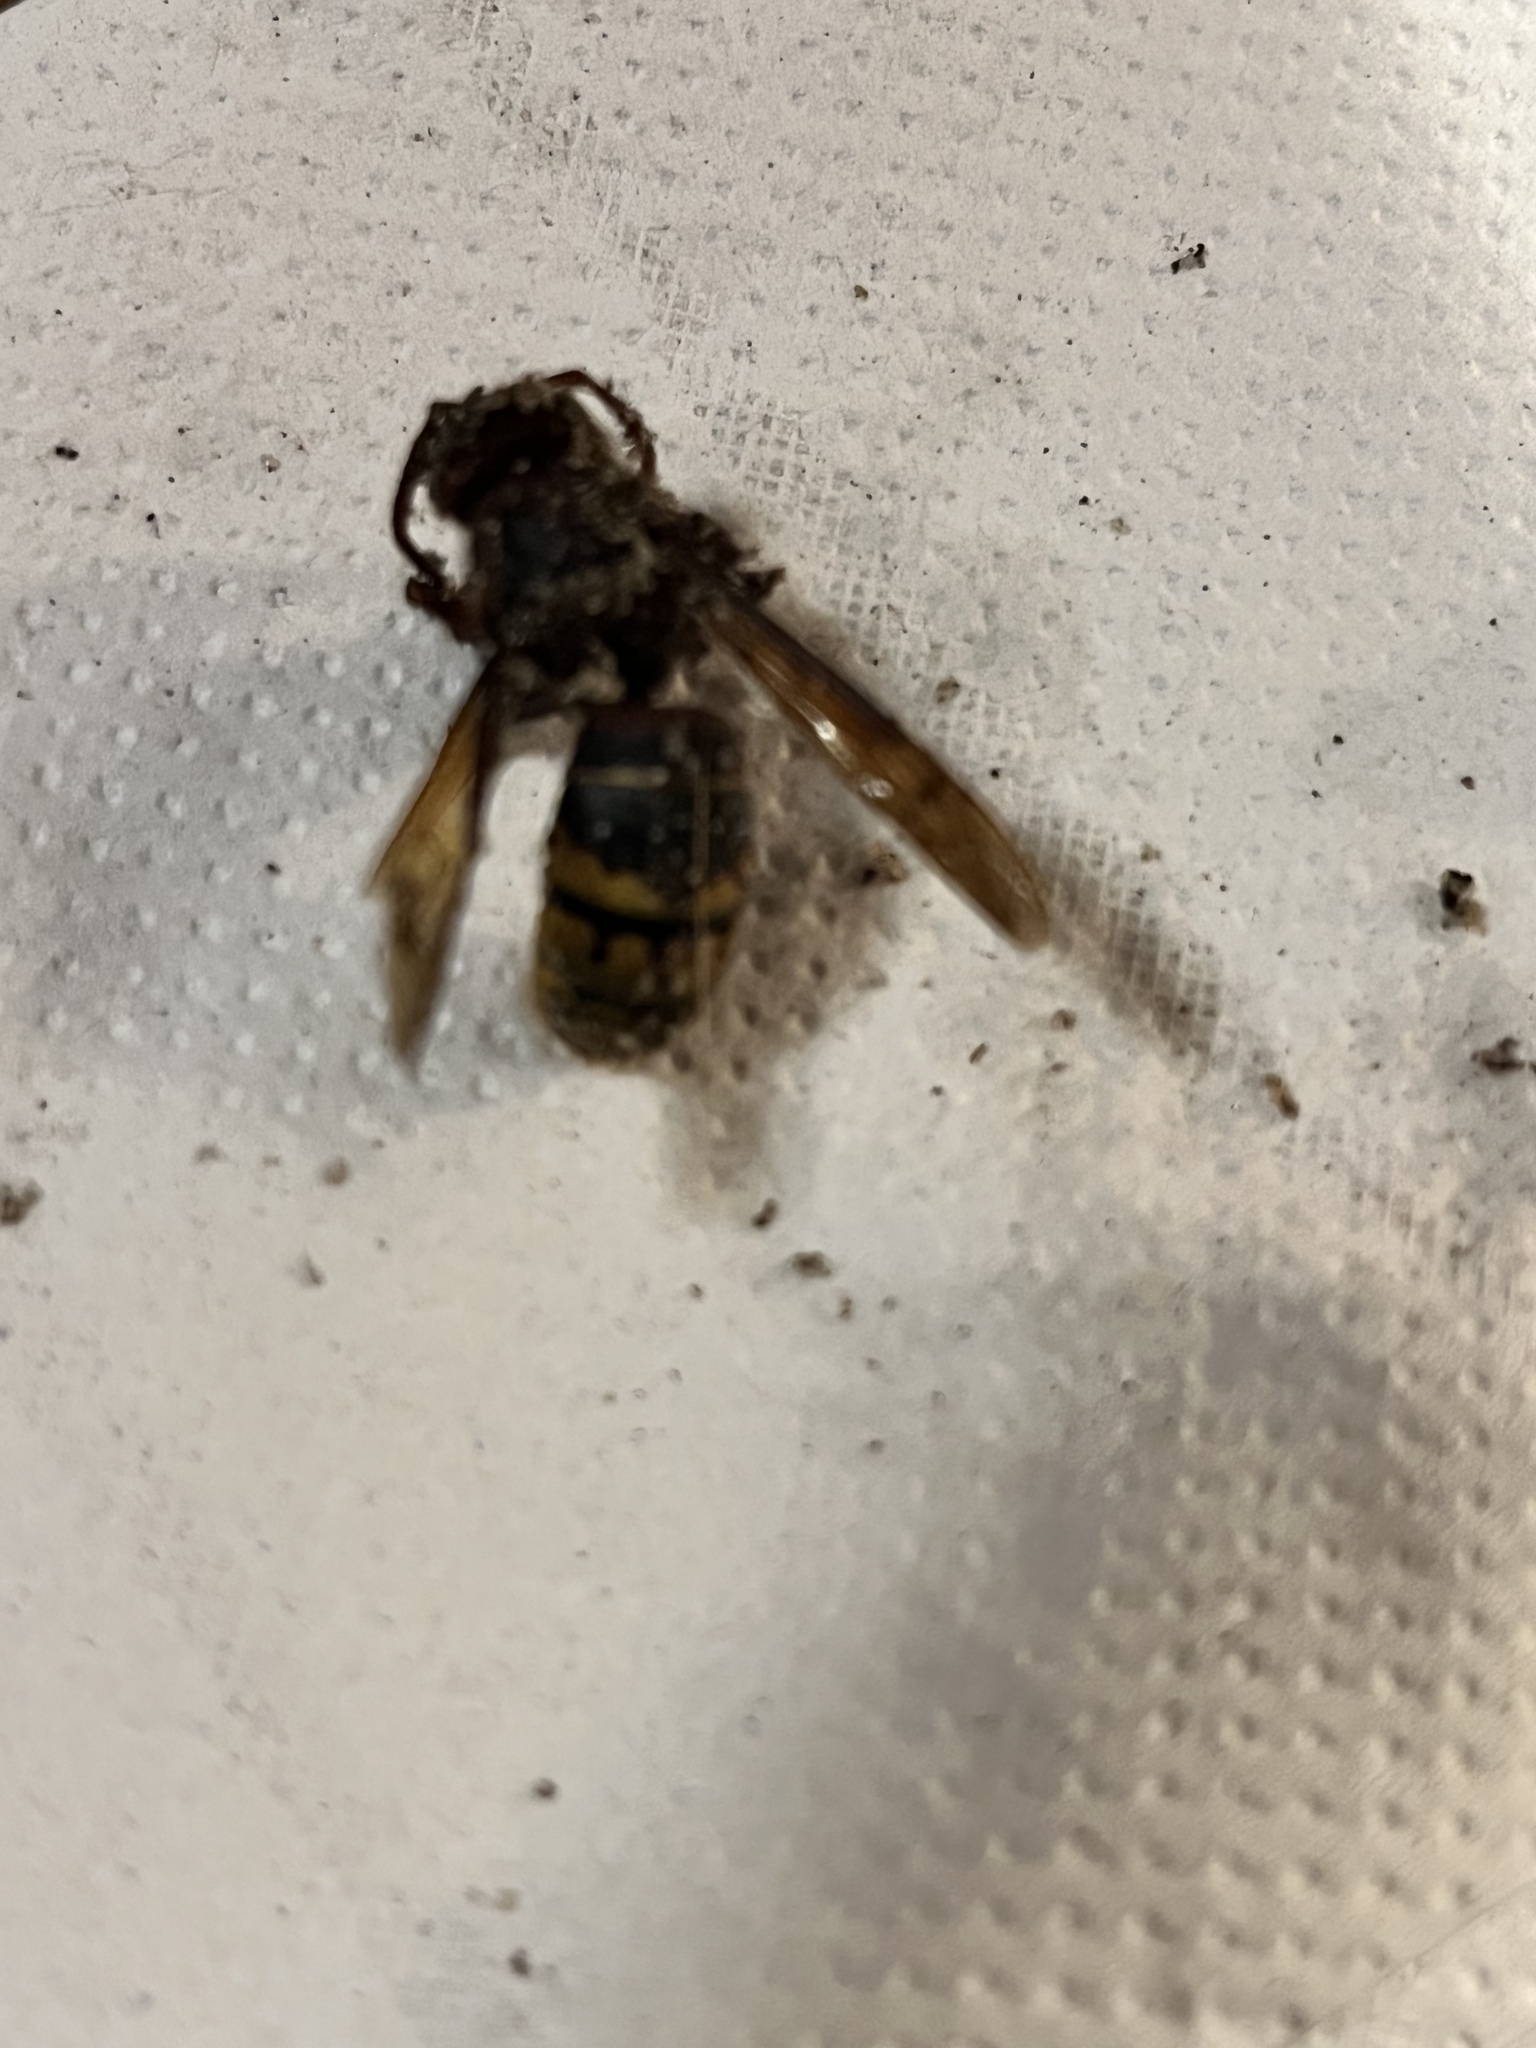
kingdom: Animalia
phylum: Arthropoda
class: Insecta
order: Hymenoptera
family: Vespidae
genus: Vespa
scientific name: Vespa crabro
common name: Hornet
